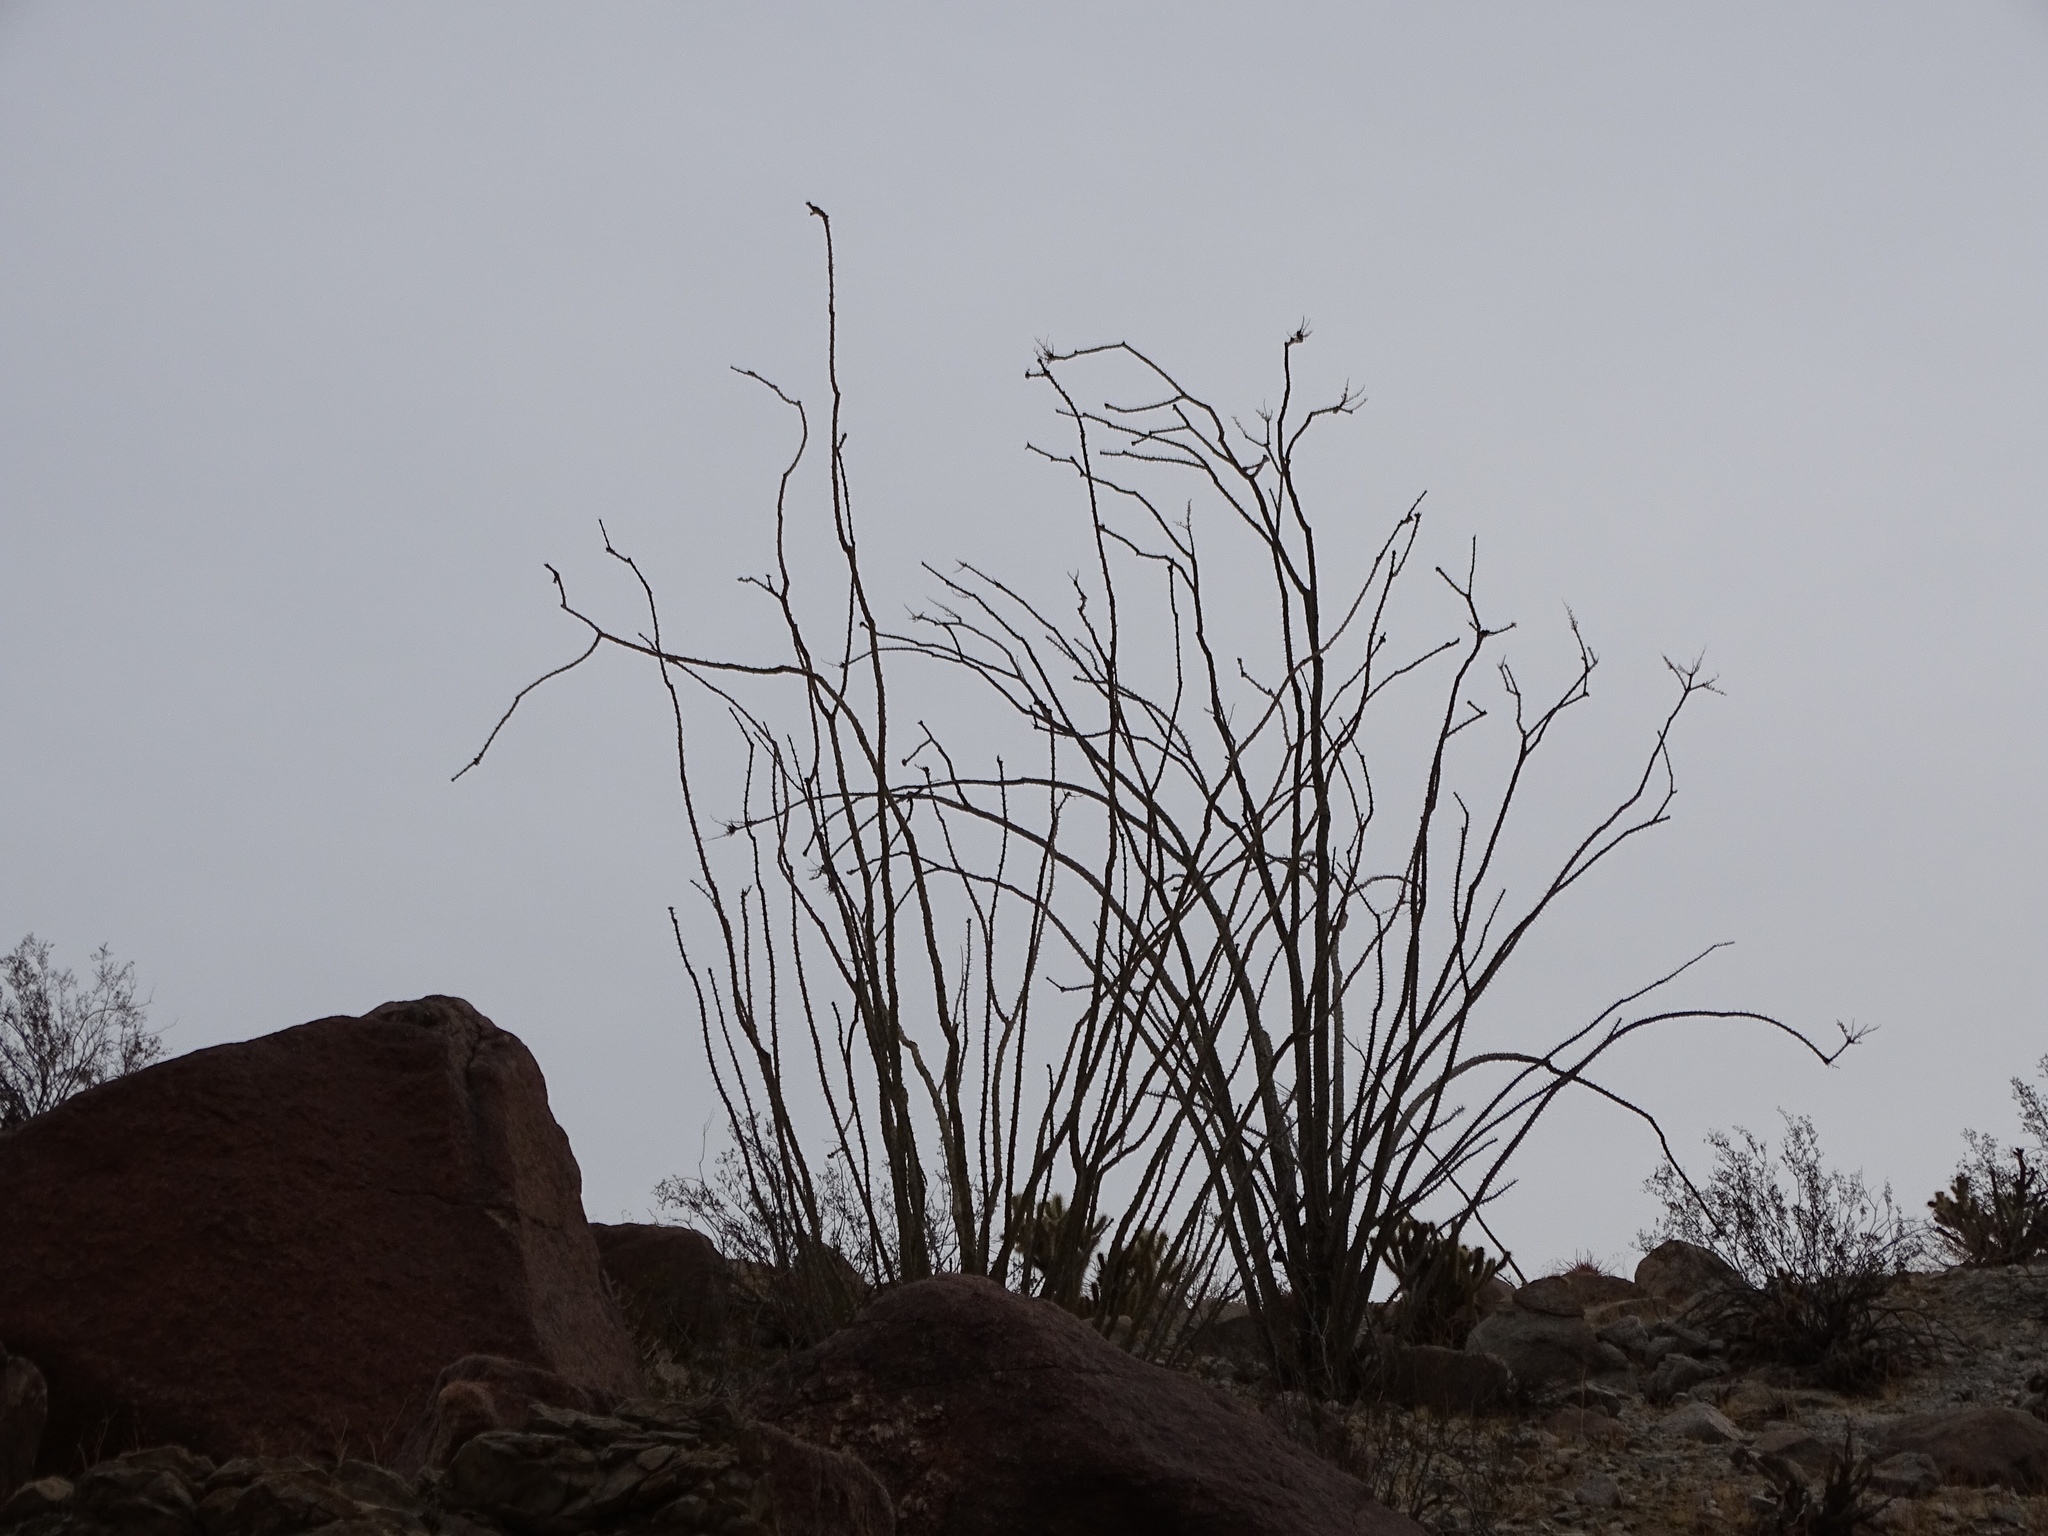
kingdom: Plantae
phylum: Tracheophyta
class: Magnoliopsida
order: Ericales
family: Fouquieriaceae
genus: Fouquieria
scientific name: Fouquieria splendens
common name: Vine-cactus
